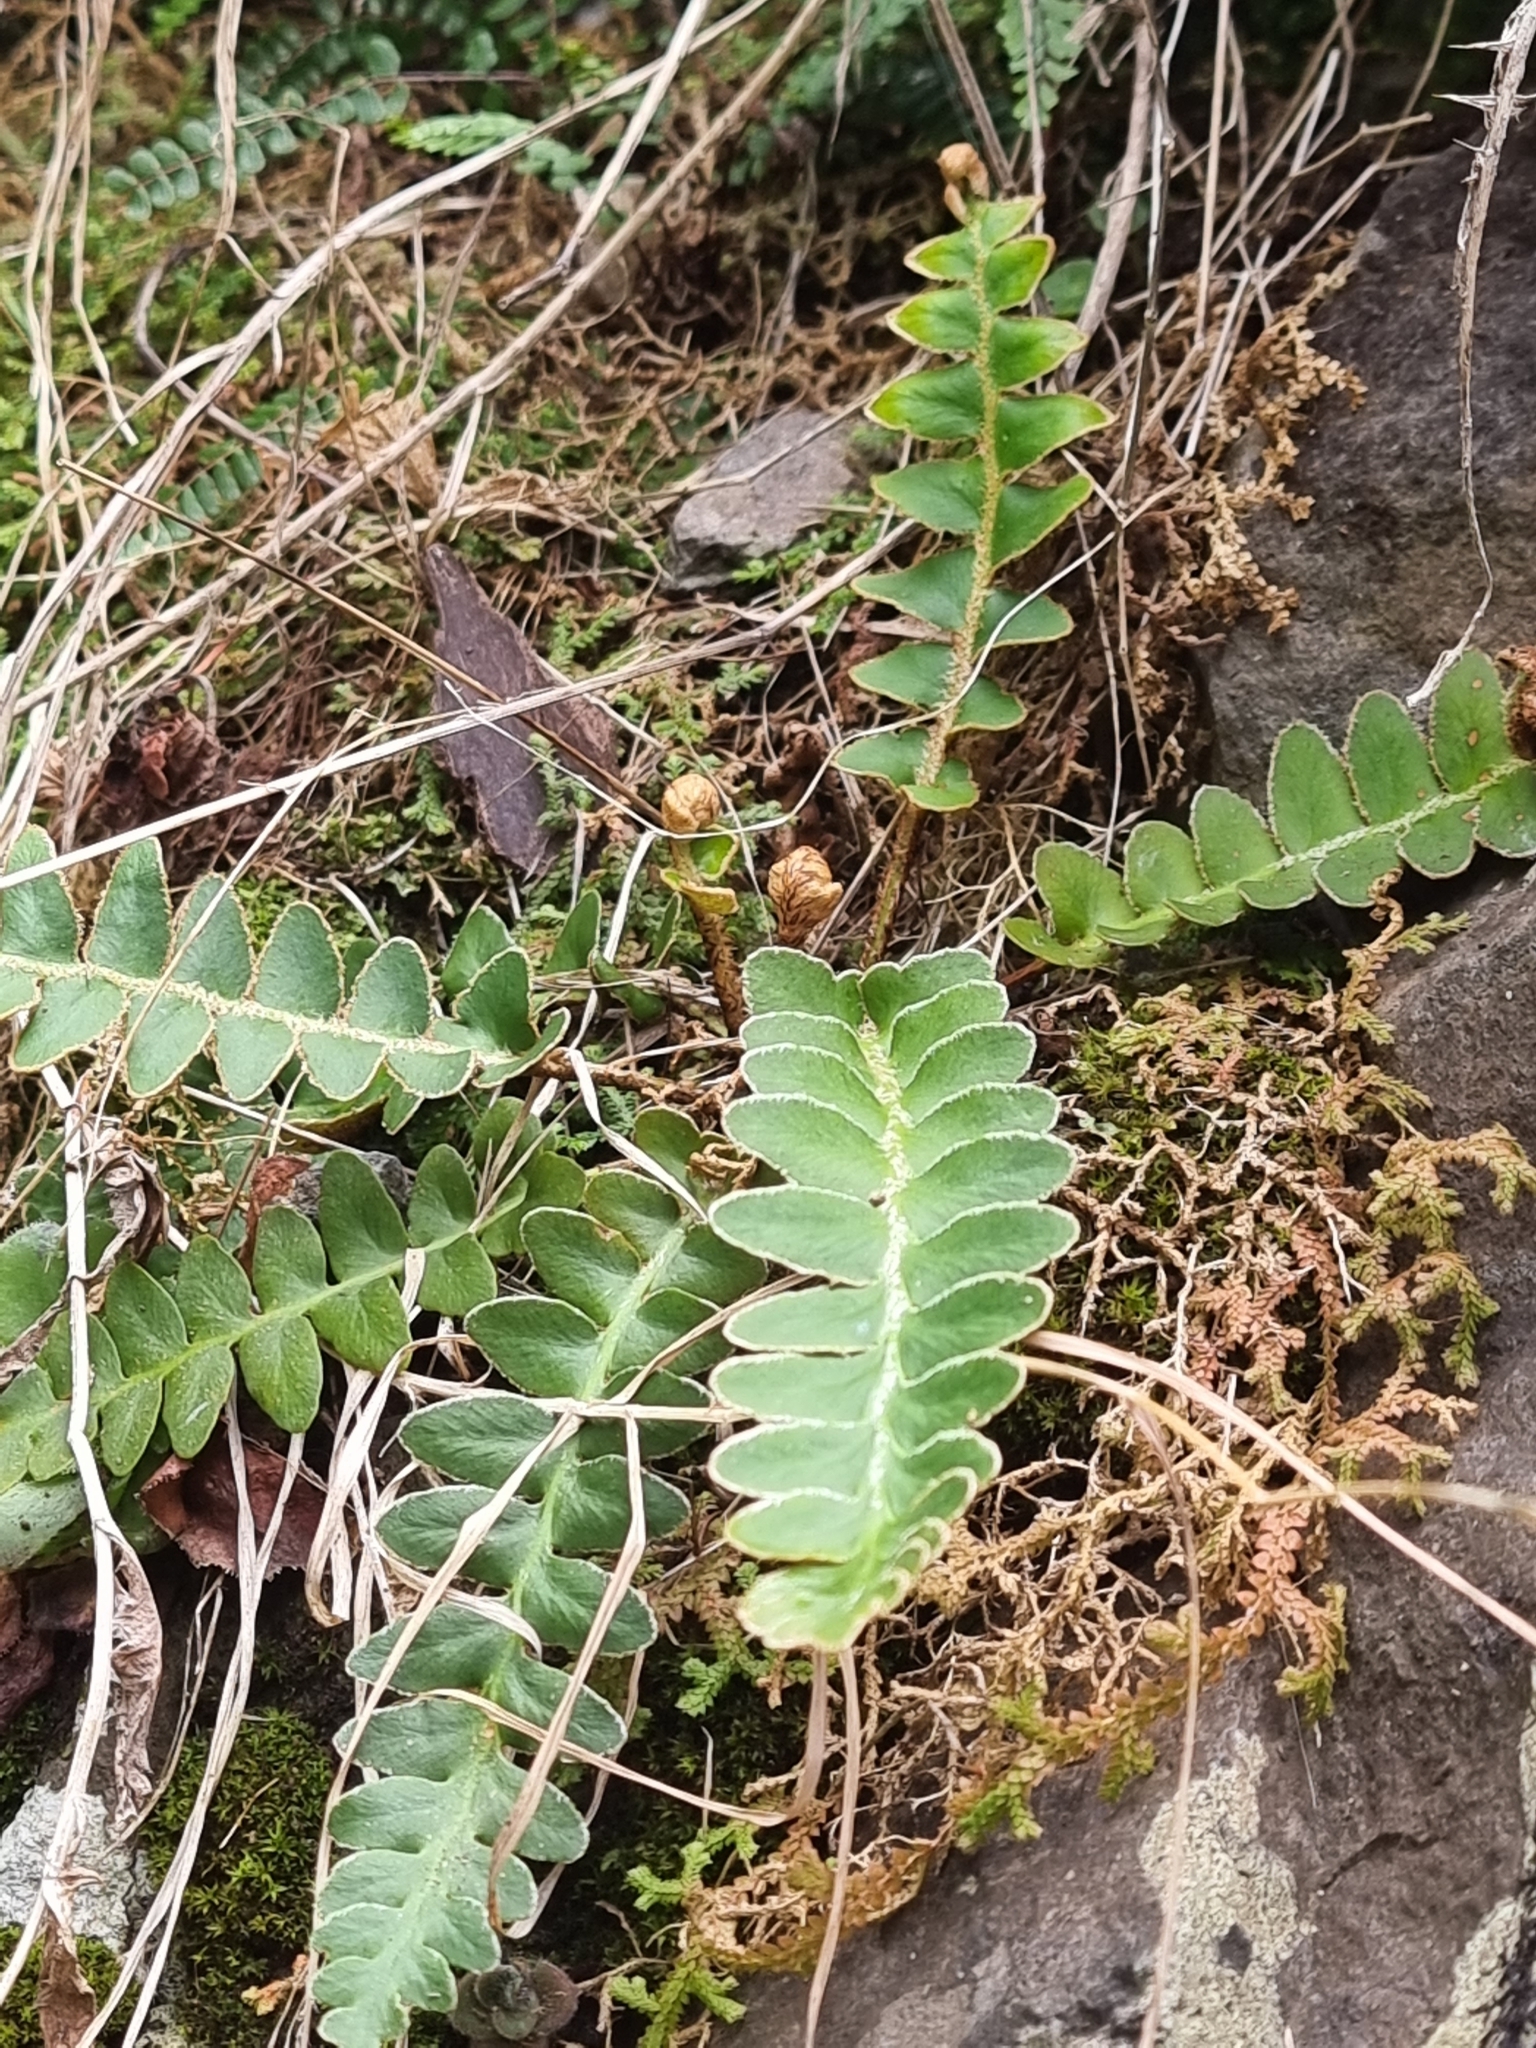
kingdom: Plantae
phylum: Tracheophyta
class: Polypodiopsida
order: Polypodiales
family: Aspleniaceae
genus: Asplenium
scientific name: Asplenium lolegnamense
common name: Madeira rustyback fern
